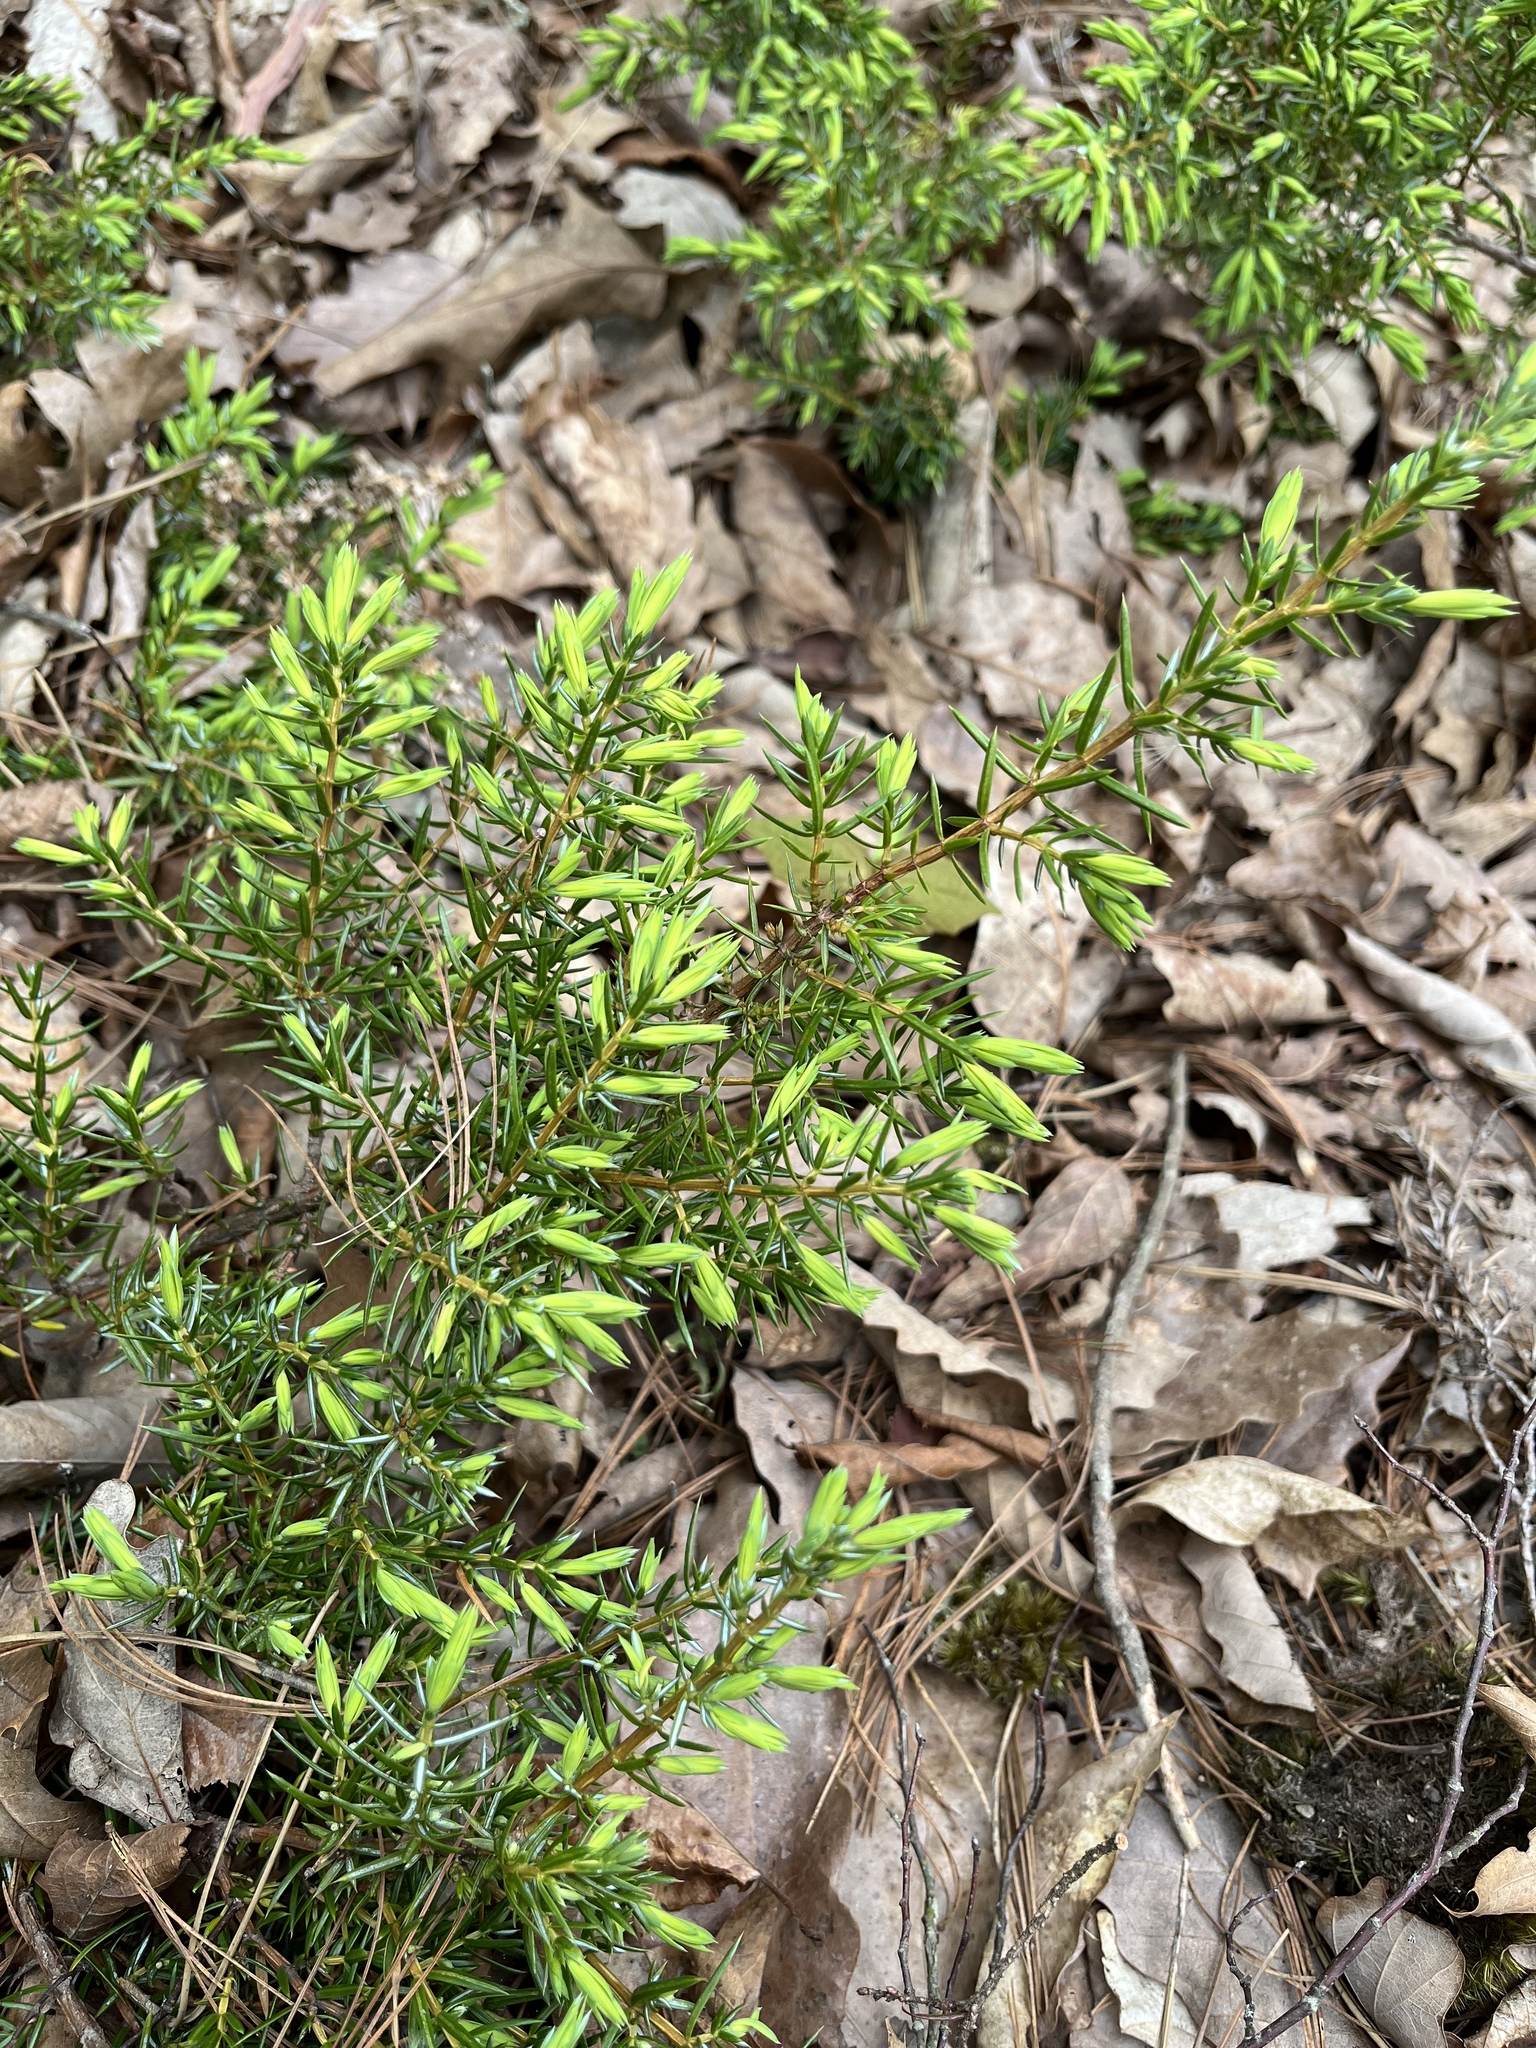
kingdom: Plantae
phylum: Tracheophyta
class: Pinopsida
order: Pinales
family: Cupressaceae
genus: Juniperus
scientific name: Juniperus communis
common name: Common juniper
